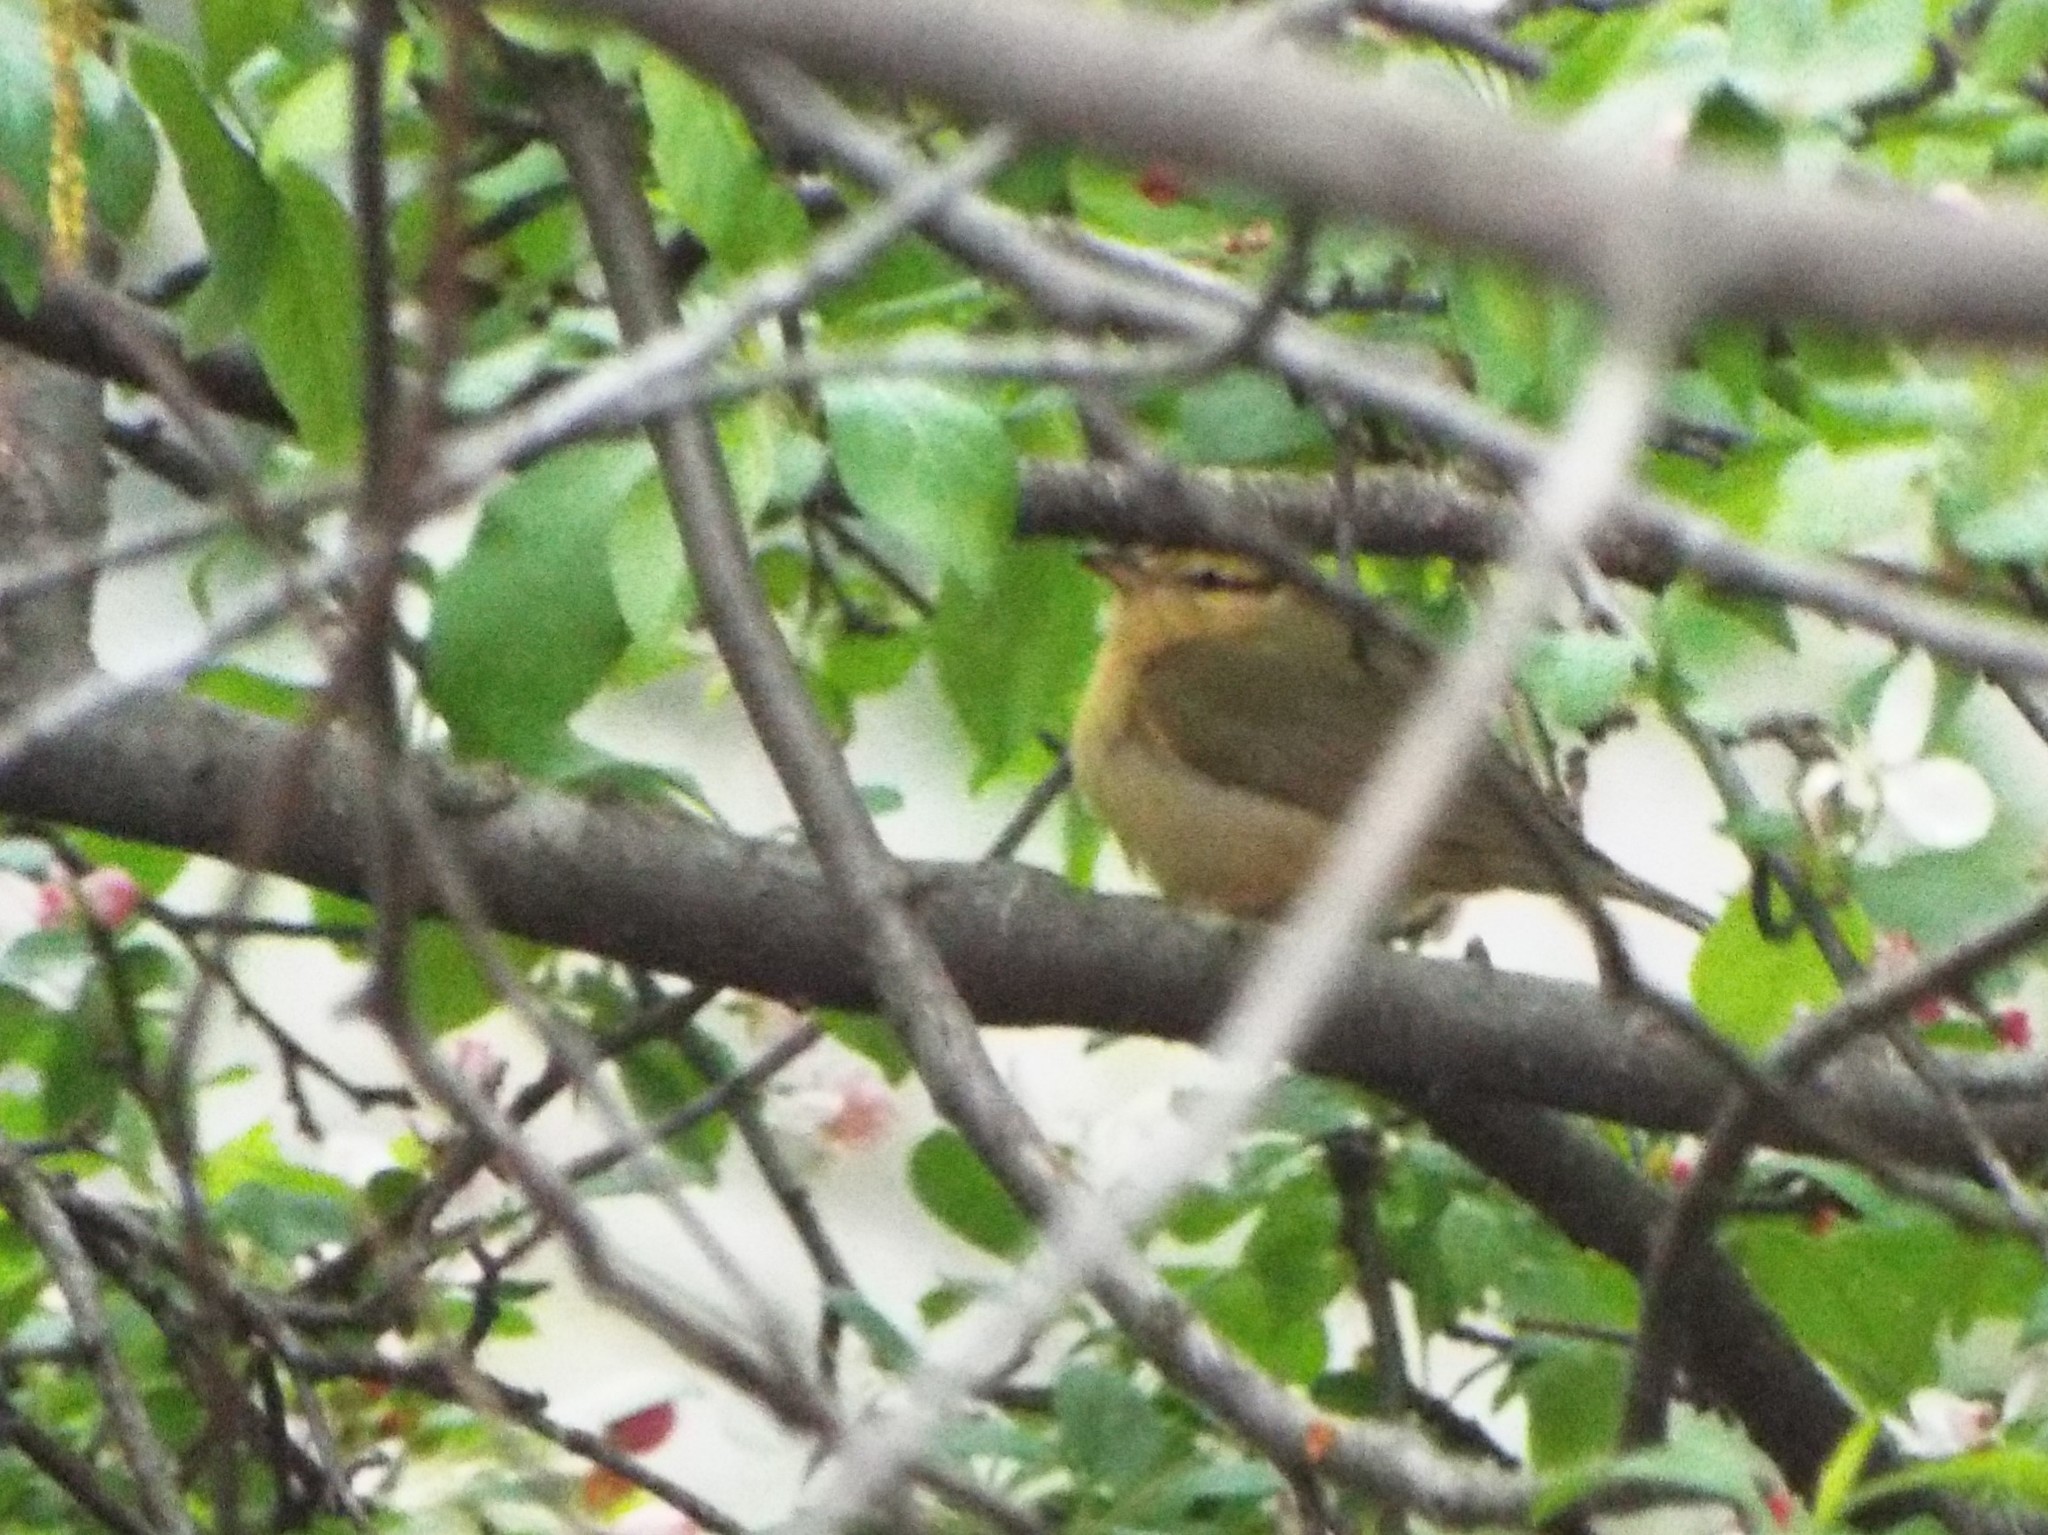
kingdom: Animalia
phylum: Chordata
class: Aves
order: Passeriformes
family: Parulidae
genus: Helmitheros
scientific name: Helmitheros vermivorum
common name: Worm-eating warbler
